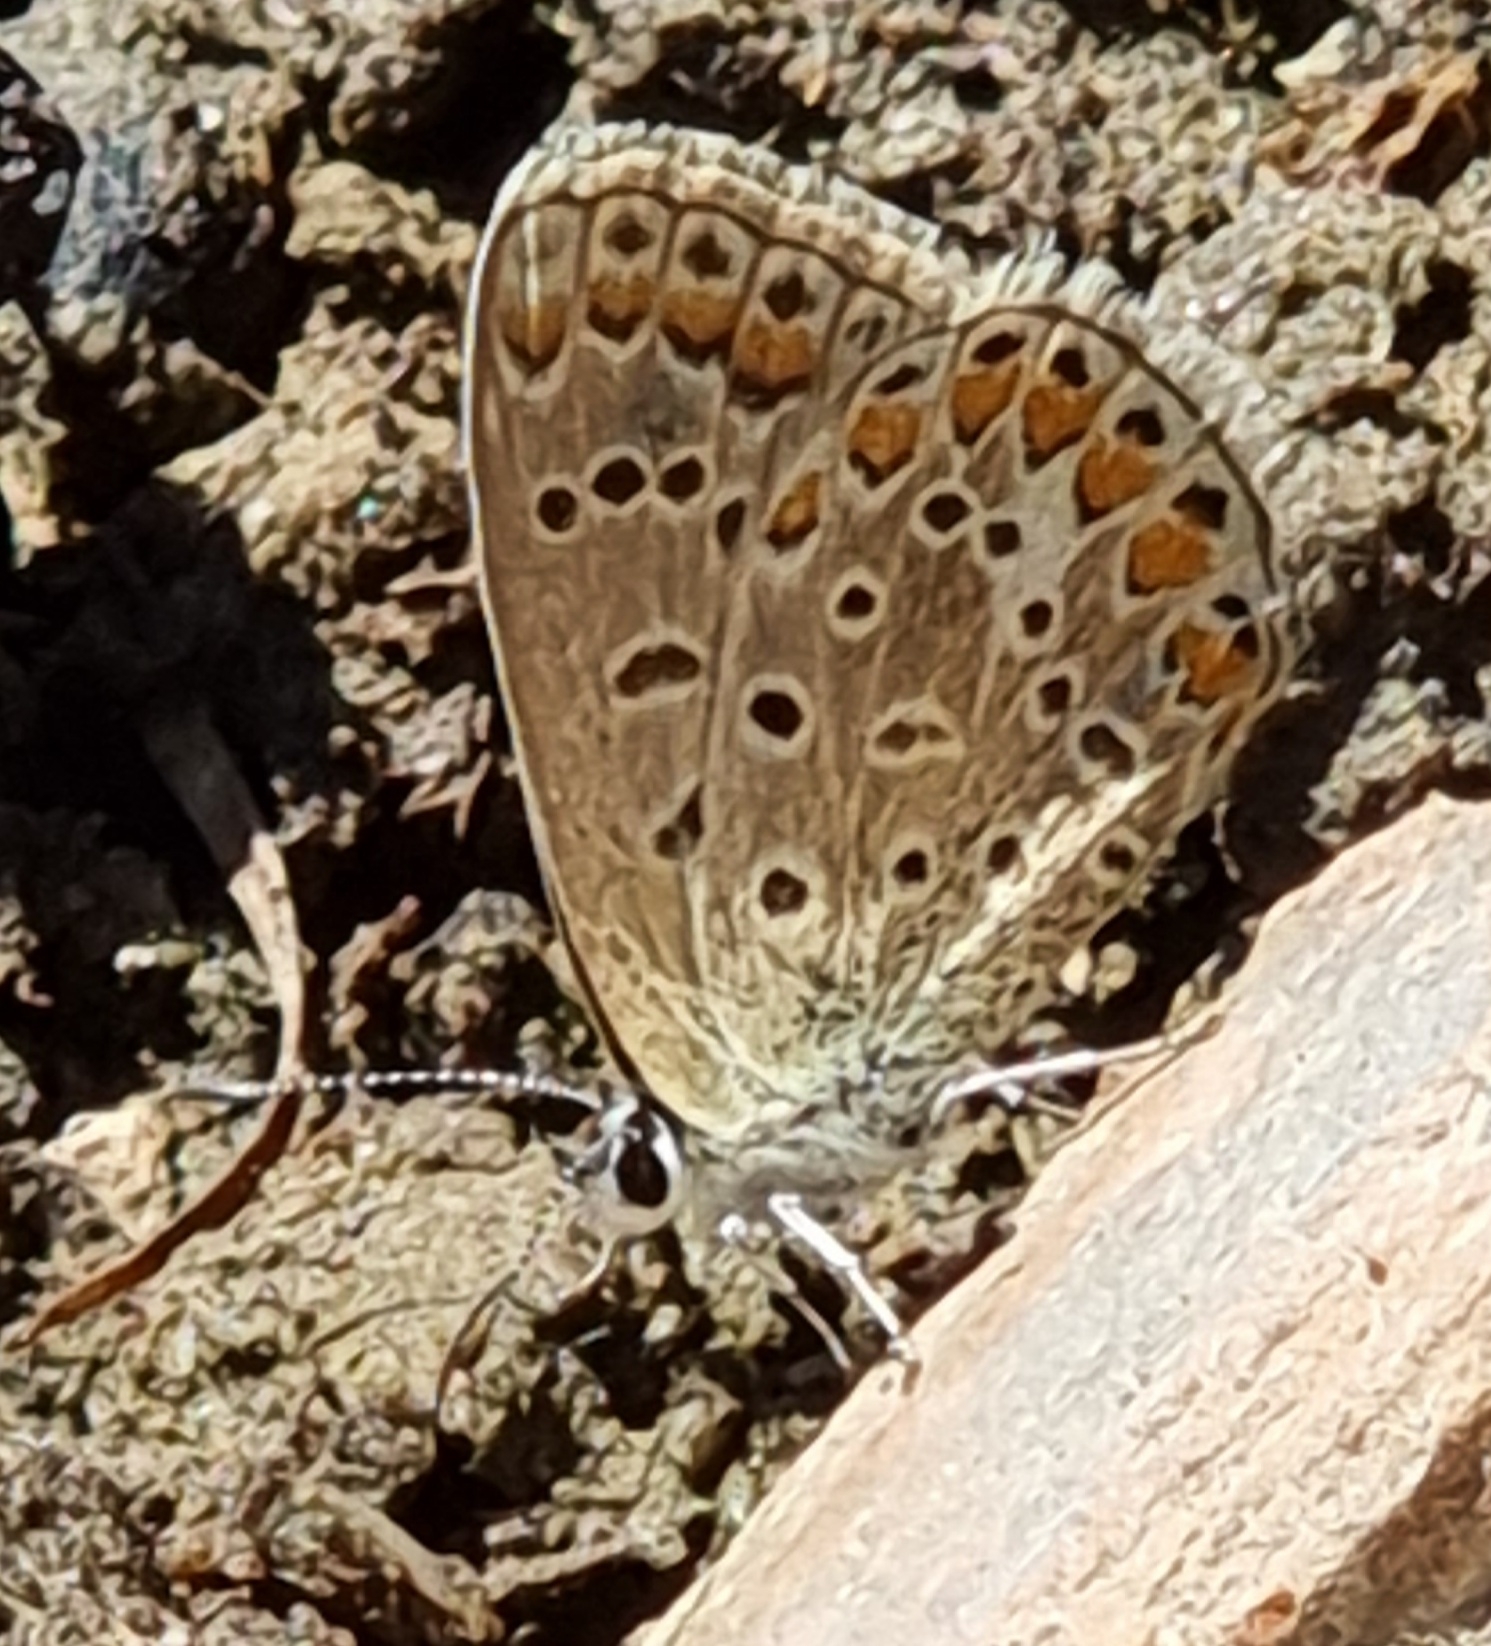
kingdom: Animalia
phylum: Arthropoda
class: Insecta
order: Lepidoptera
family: Lycaenidae
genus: Polyommatus
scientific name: Polyommatus icarus
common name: Common blue
